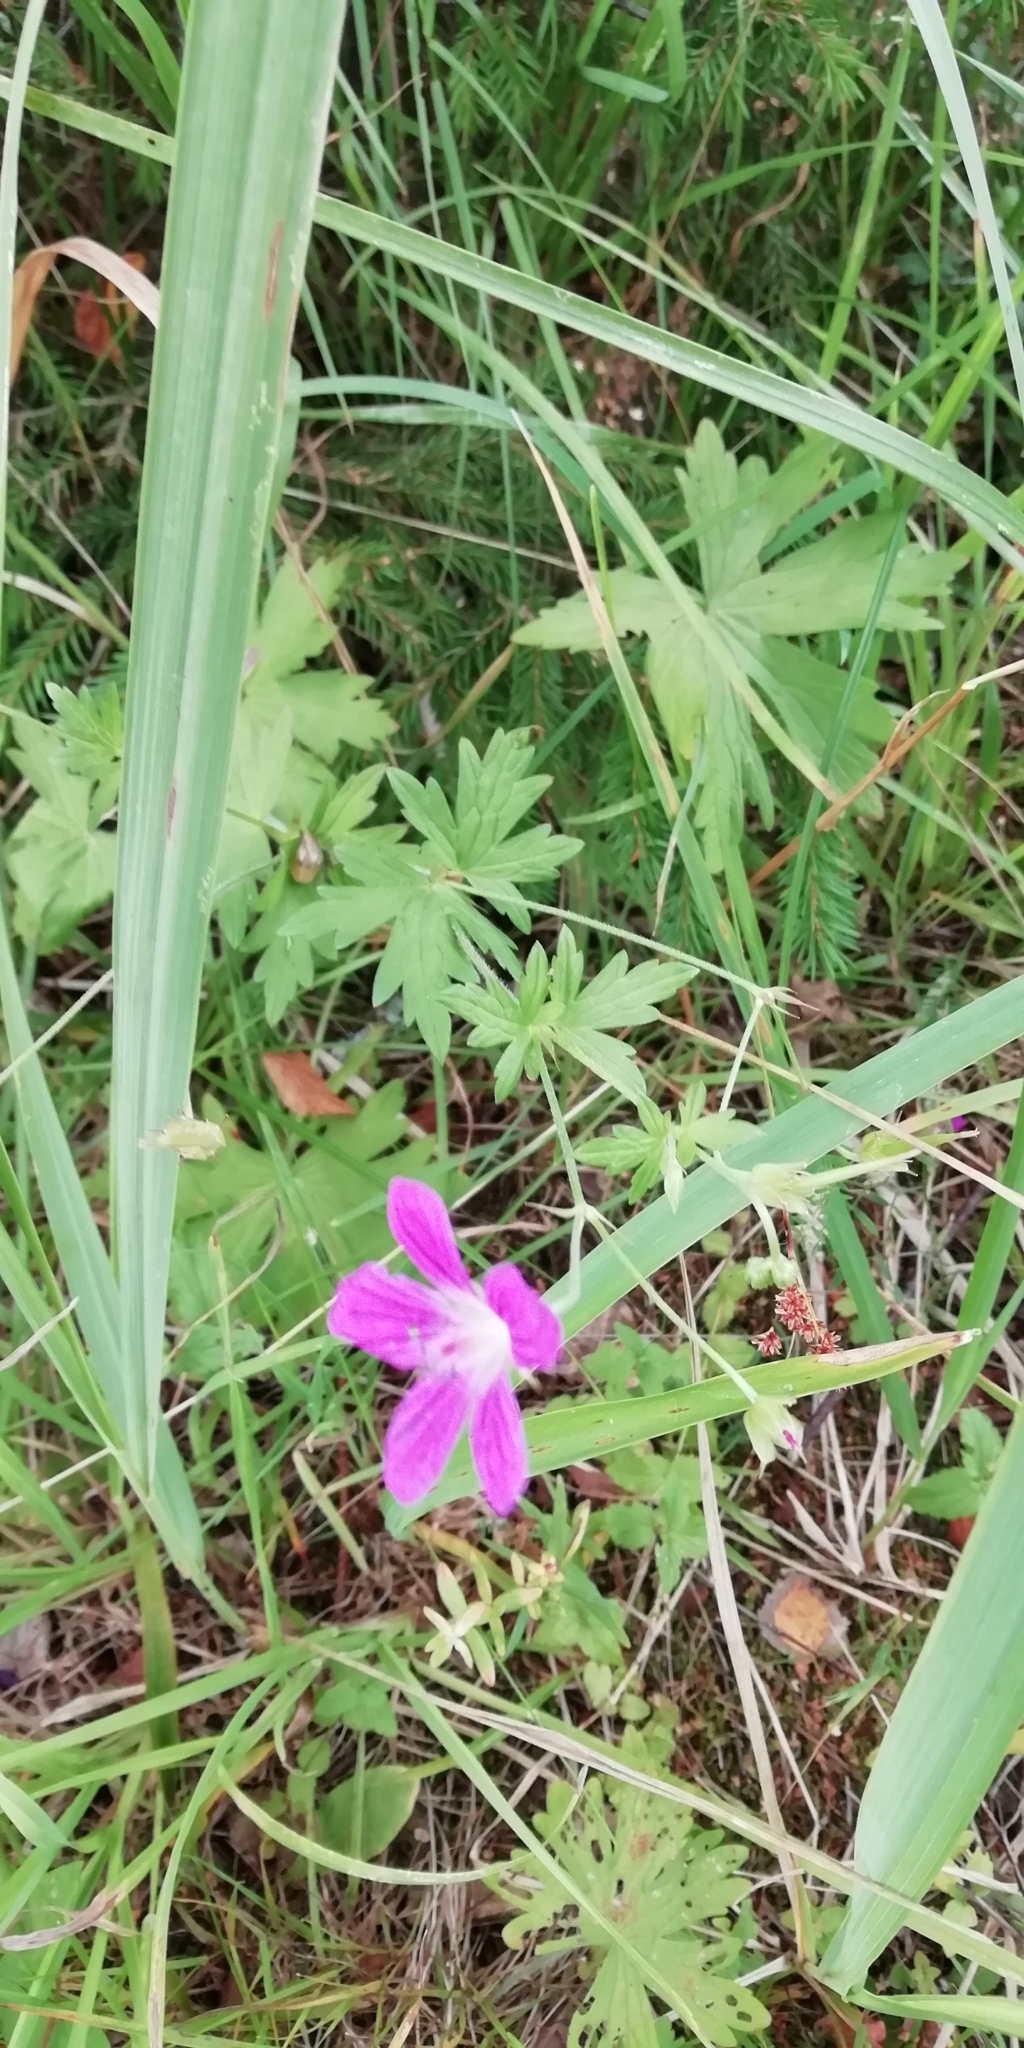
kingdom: Plantae
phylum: Tracheophyta
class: Magnoliopsida
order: Geraniales
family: Geraniaceae
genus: Geranium
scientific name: Geranium palustre
